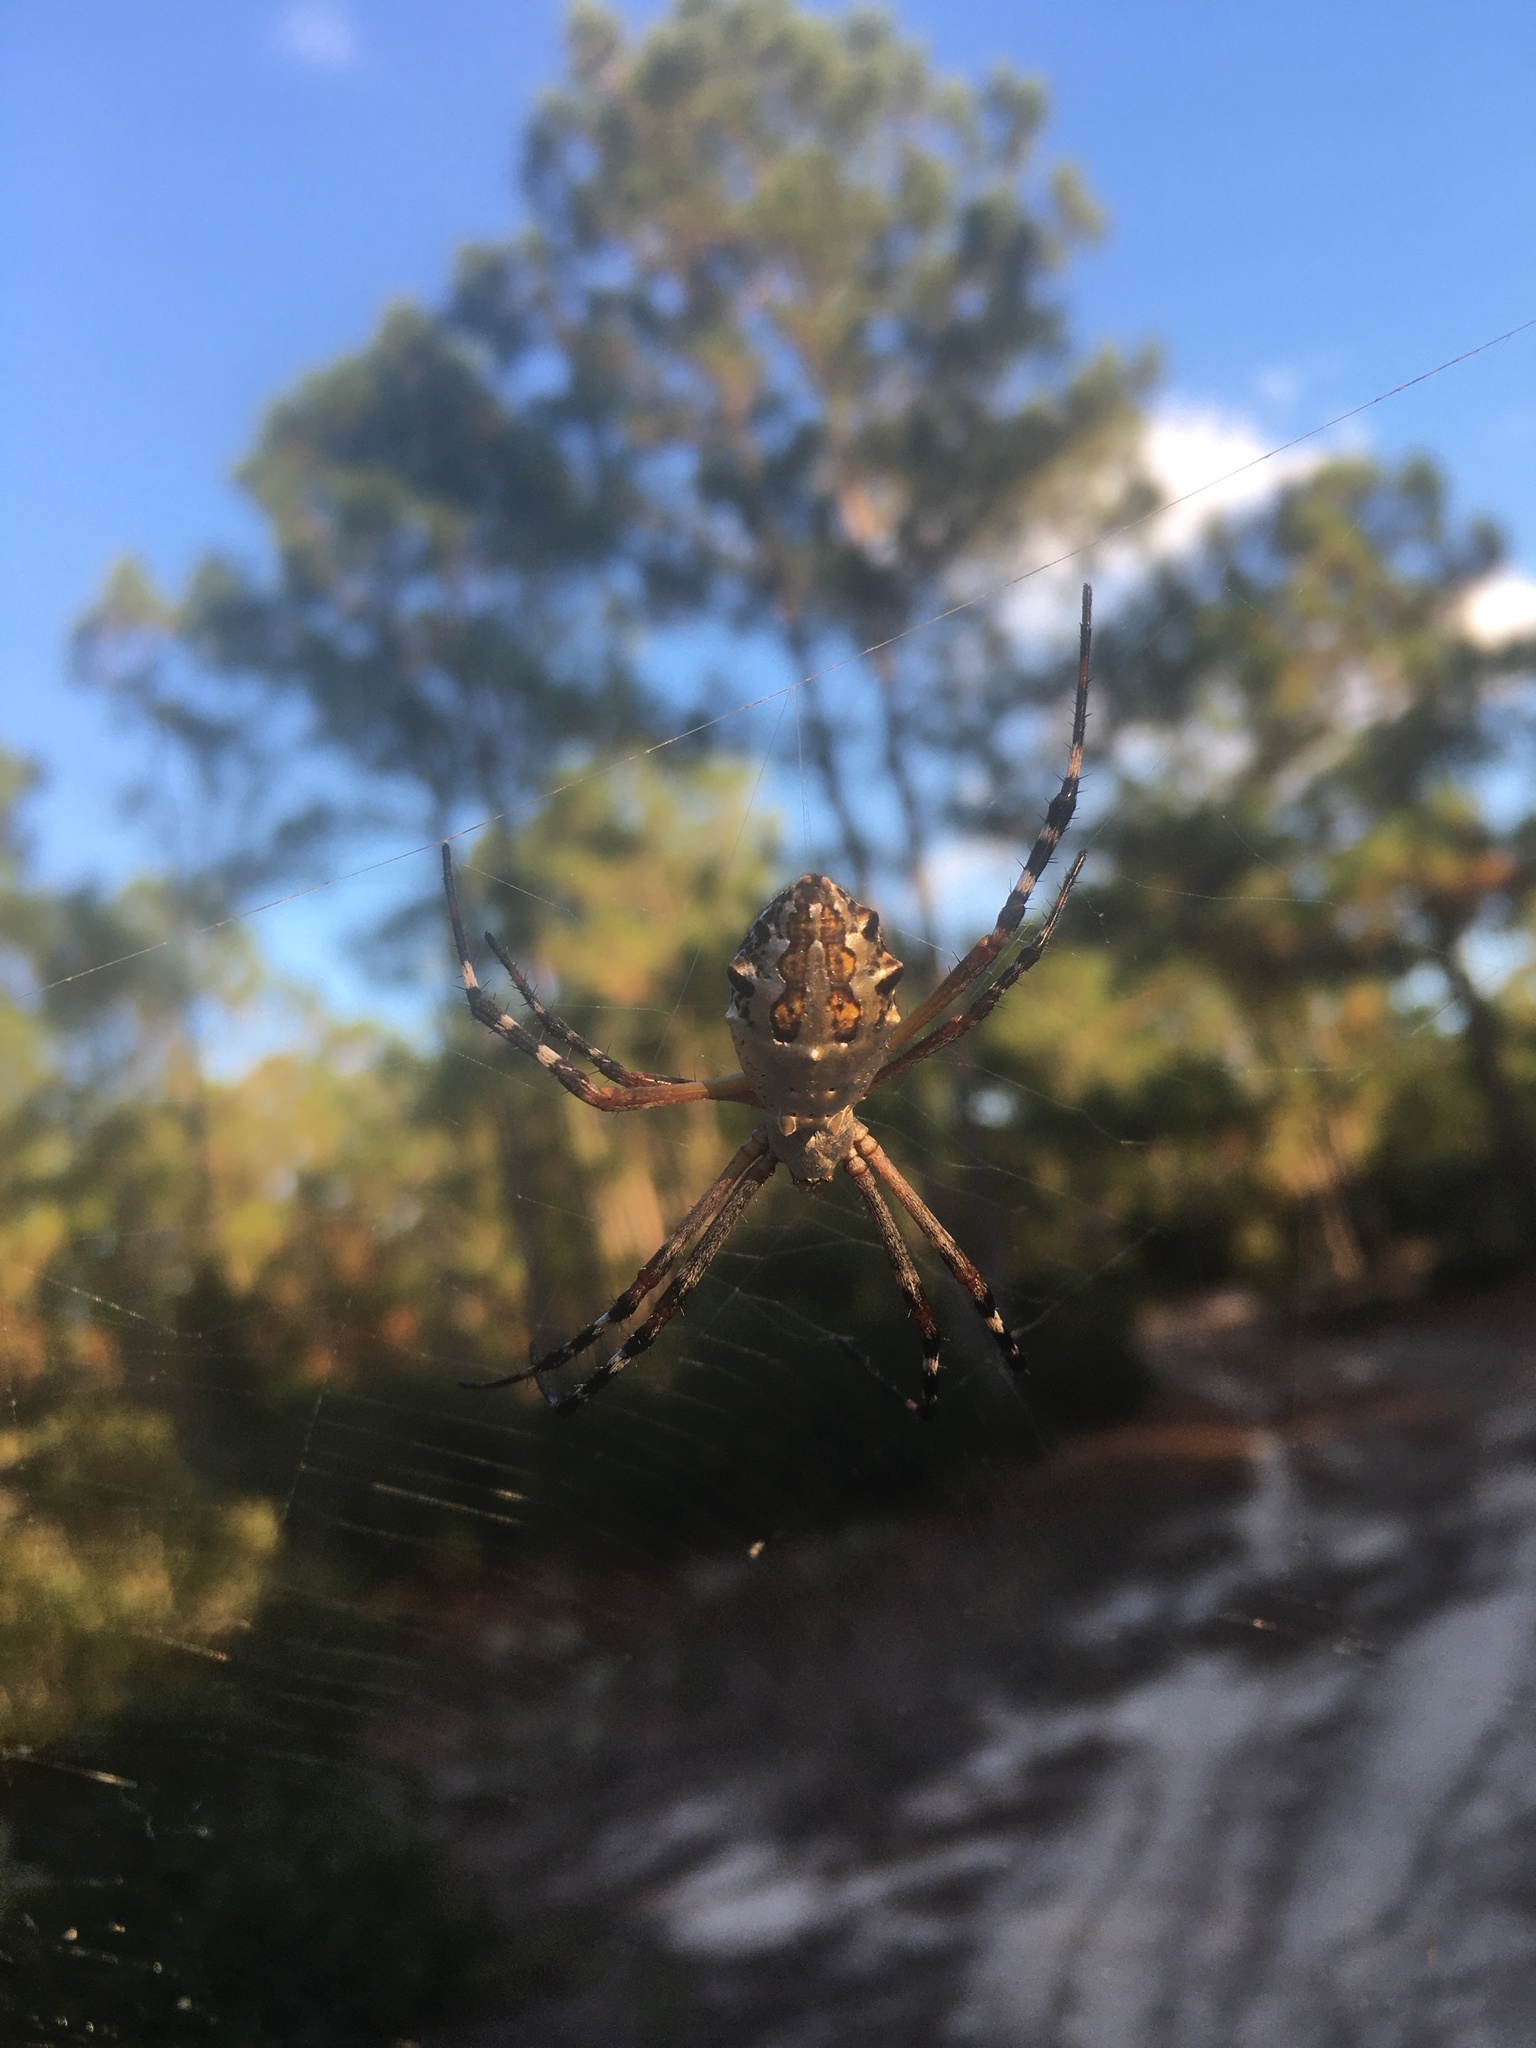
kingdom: Animalia
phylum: Arthropoda
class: Arachnida
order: Araneae
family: Araneidae
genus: Argiope
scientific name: Argiope florida
